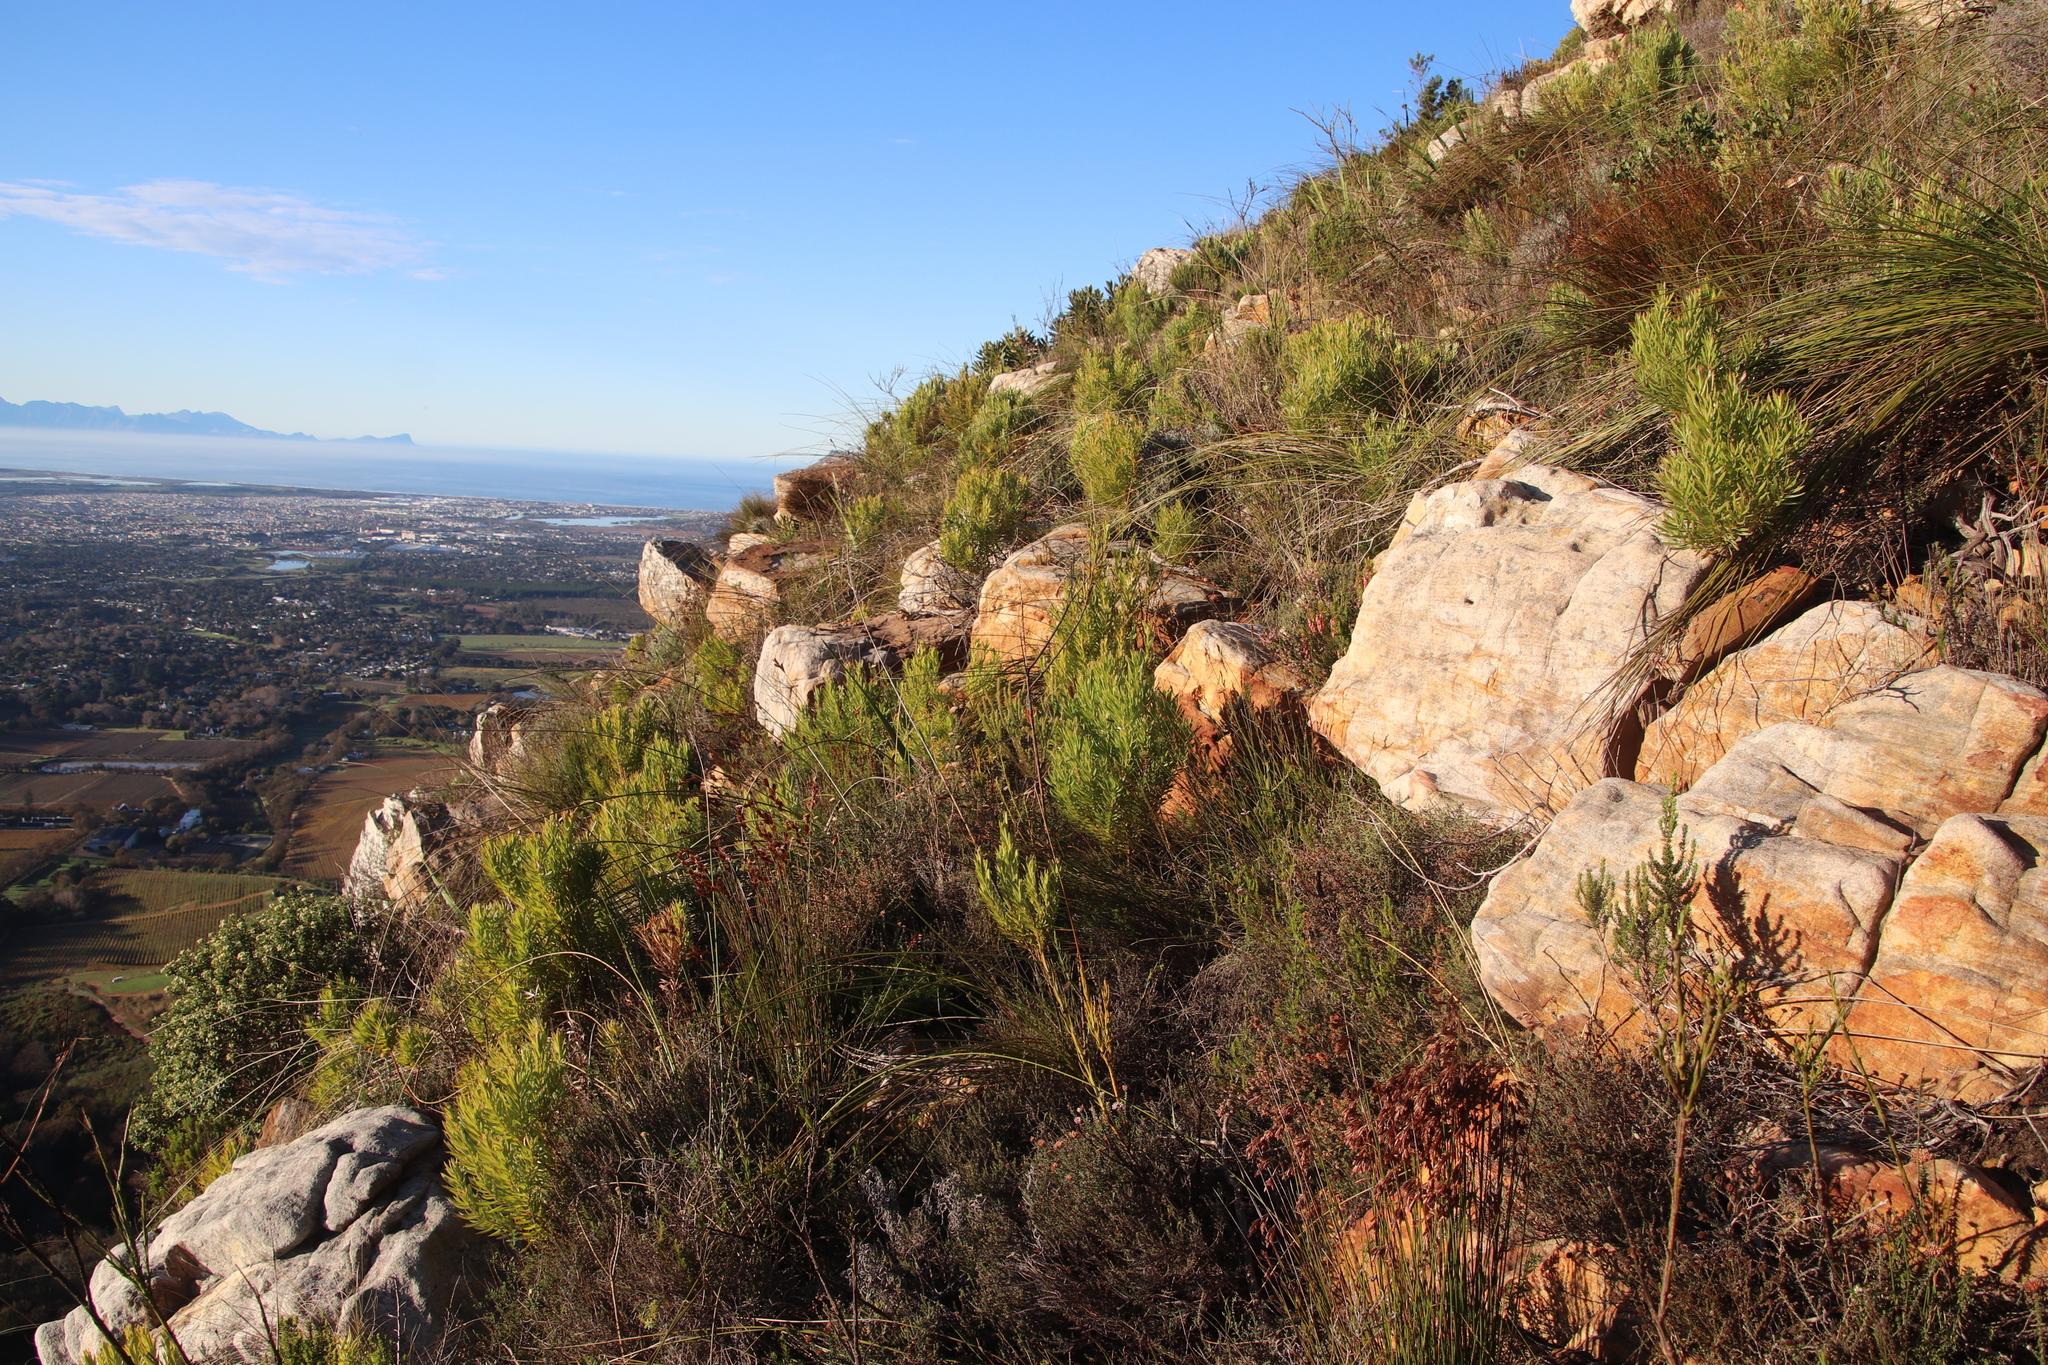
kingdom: Plantae
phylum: Tracheophyta
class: Magnoliopsida
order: Proteales
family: Proteaceae
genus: Leucadendron
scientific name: Leucadendron xanthoconus
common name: Sickle-leaf conebush
